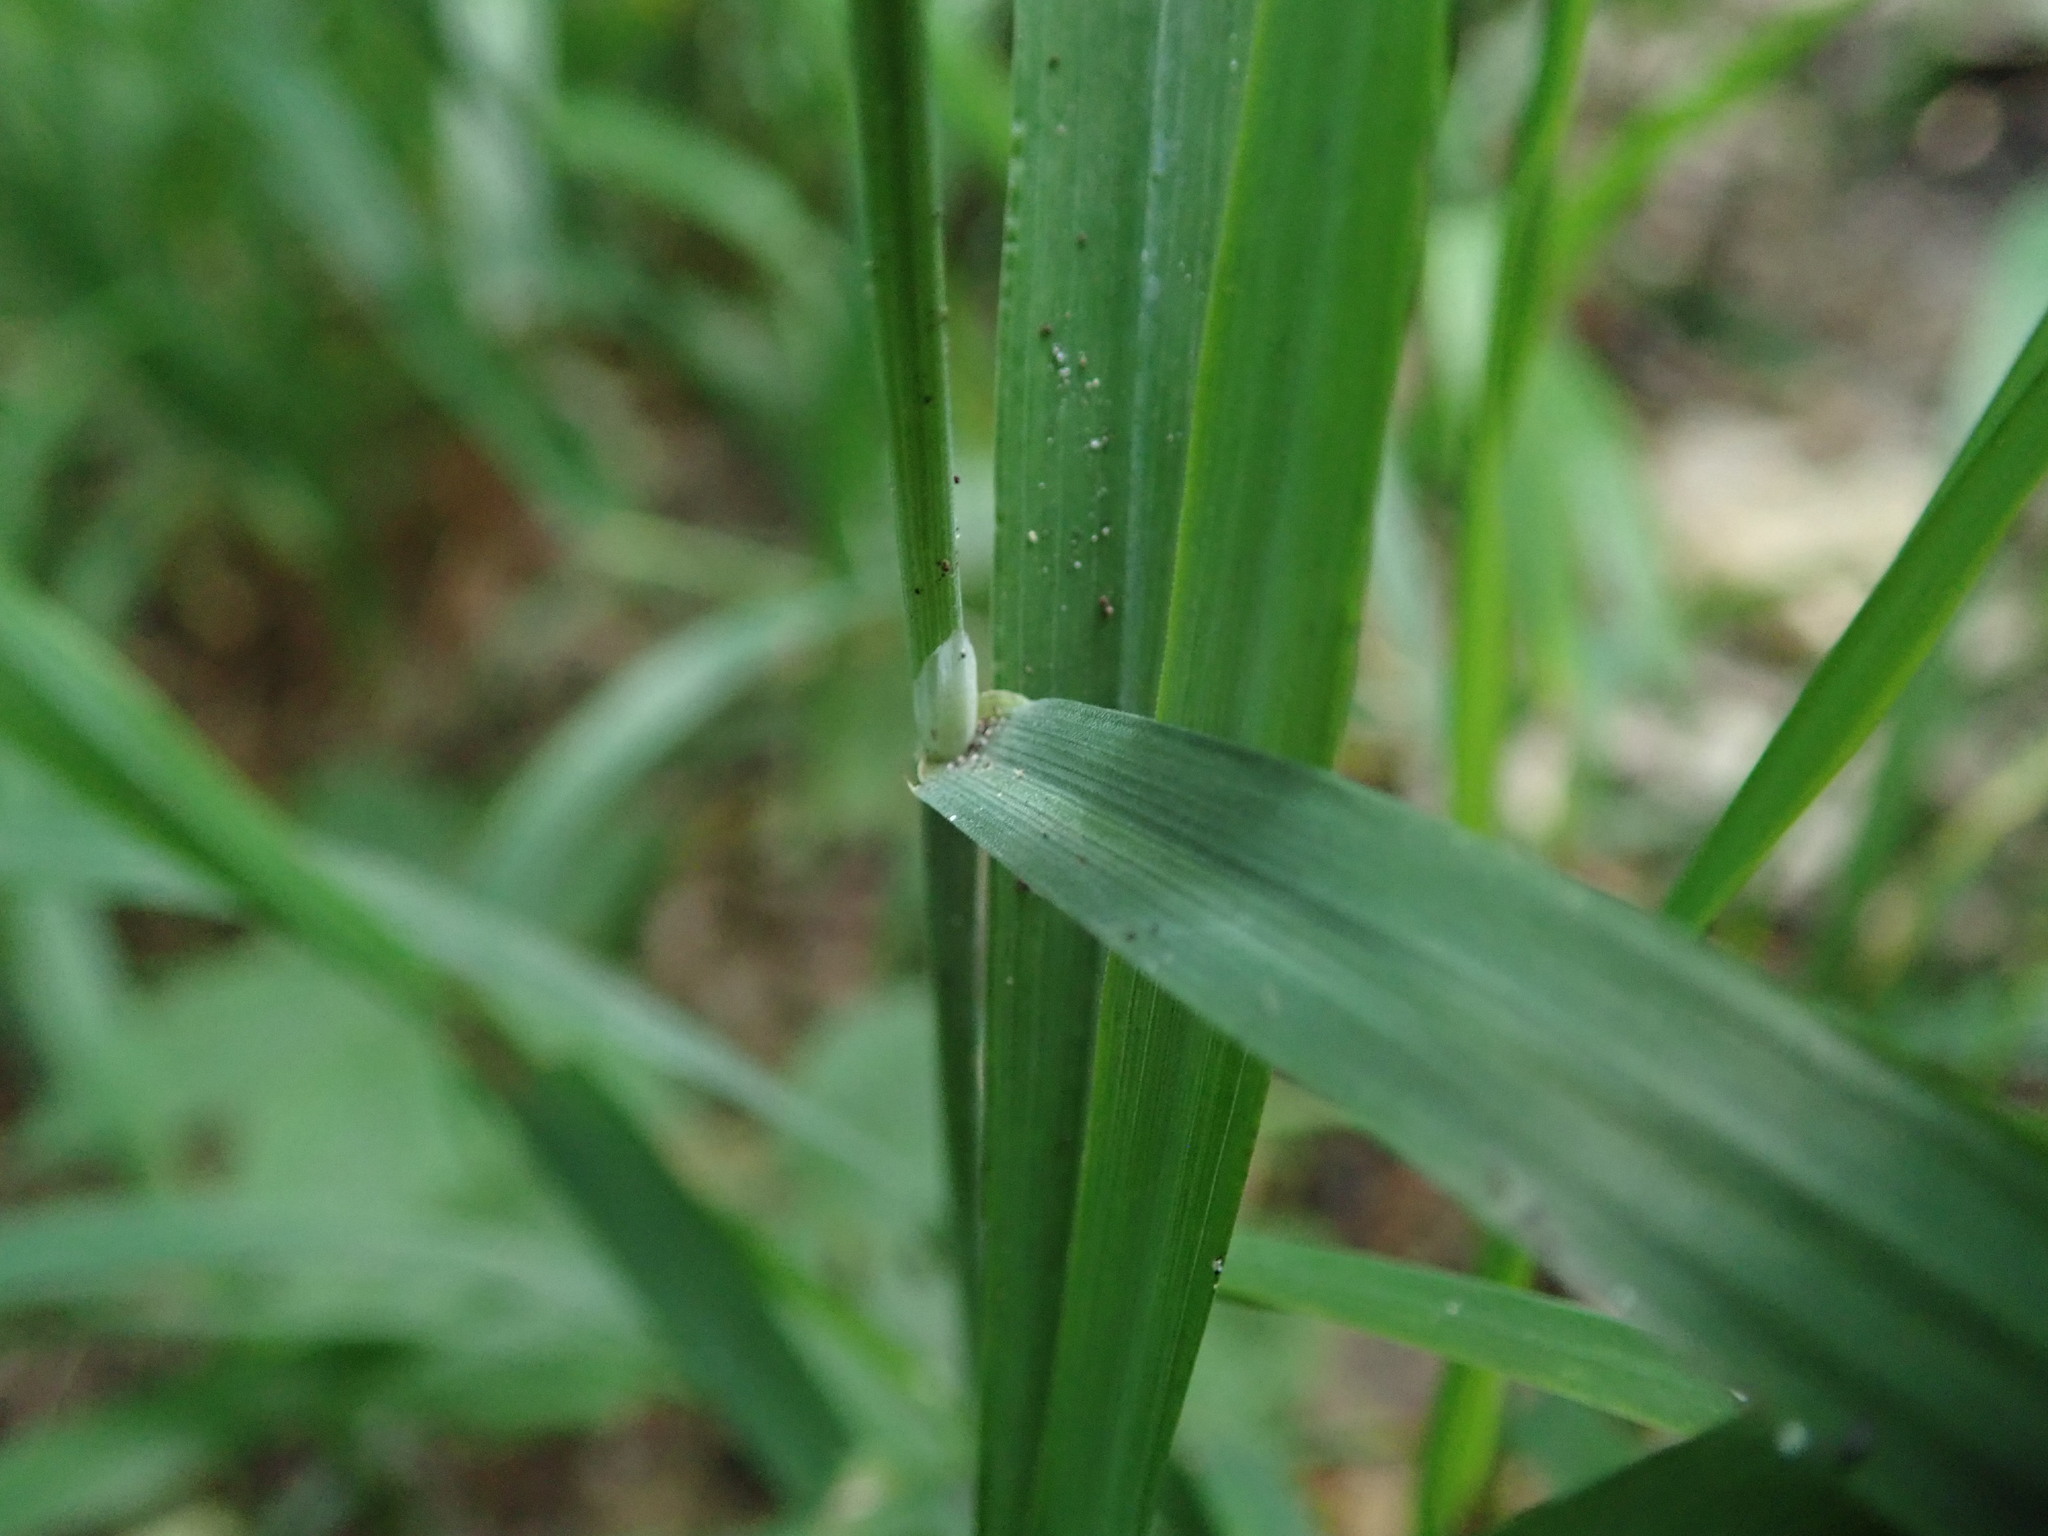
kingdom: Plantae
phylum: Tracheophyta
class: Liliopsida
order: Poales
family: Poaceae
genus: Milium
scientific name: Milium effusum
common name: Wood millet
